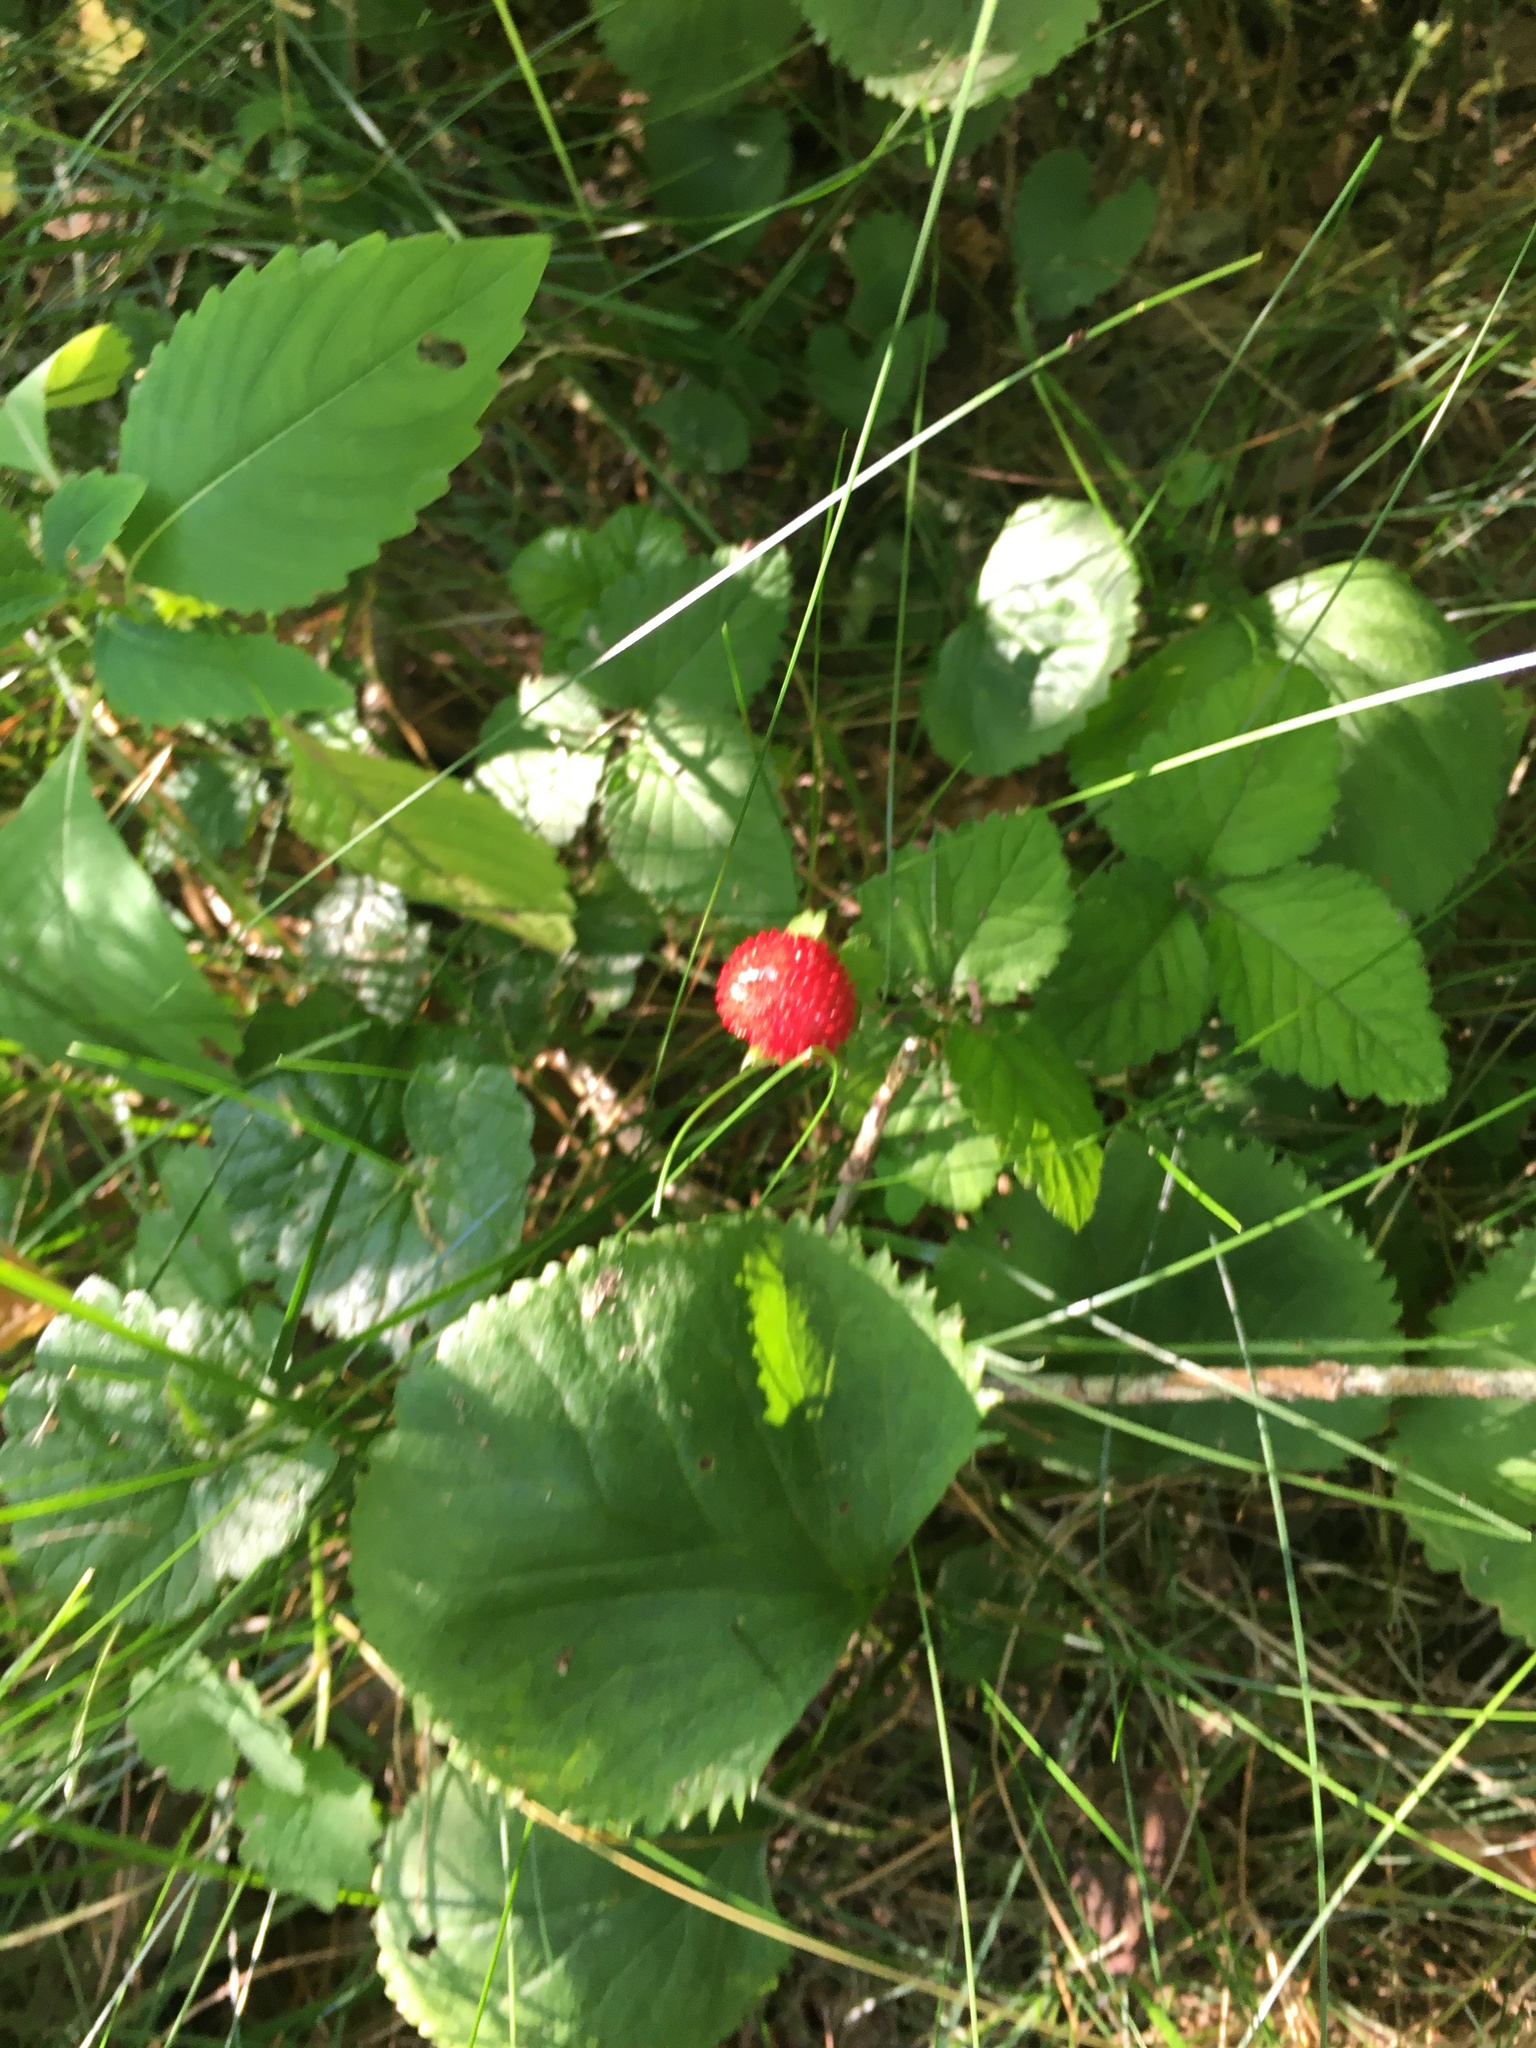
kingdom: Plantae
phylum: Tracheophyta
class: Magnoliopsida
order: Rosales
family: Rosaceae
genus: Potentilla
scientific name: Potentilla indica
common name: Yellow-flowered strawberry
